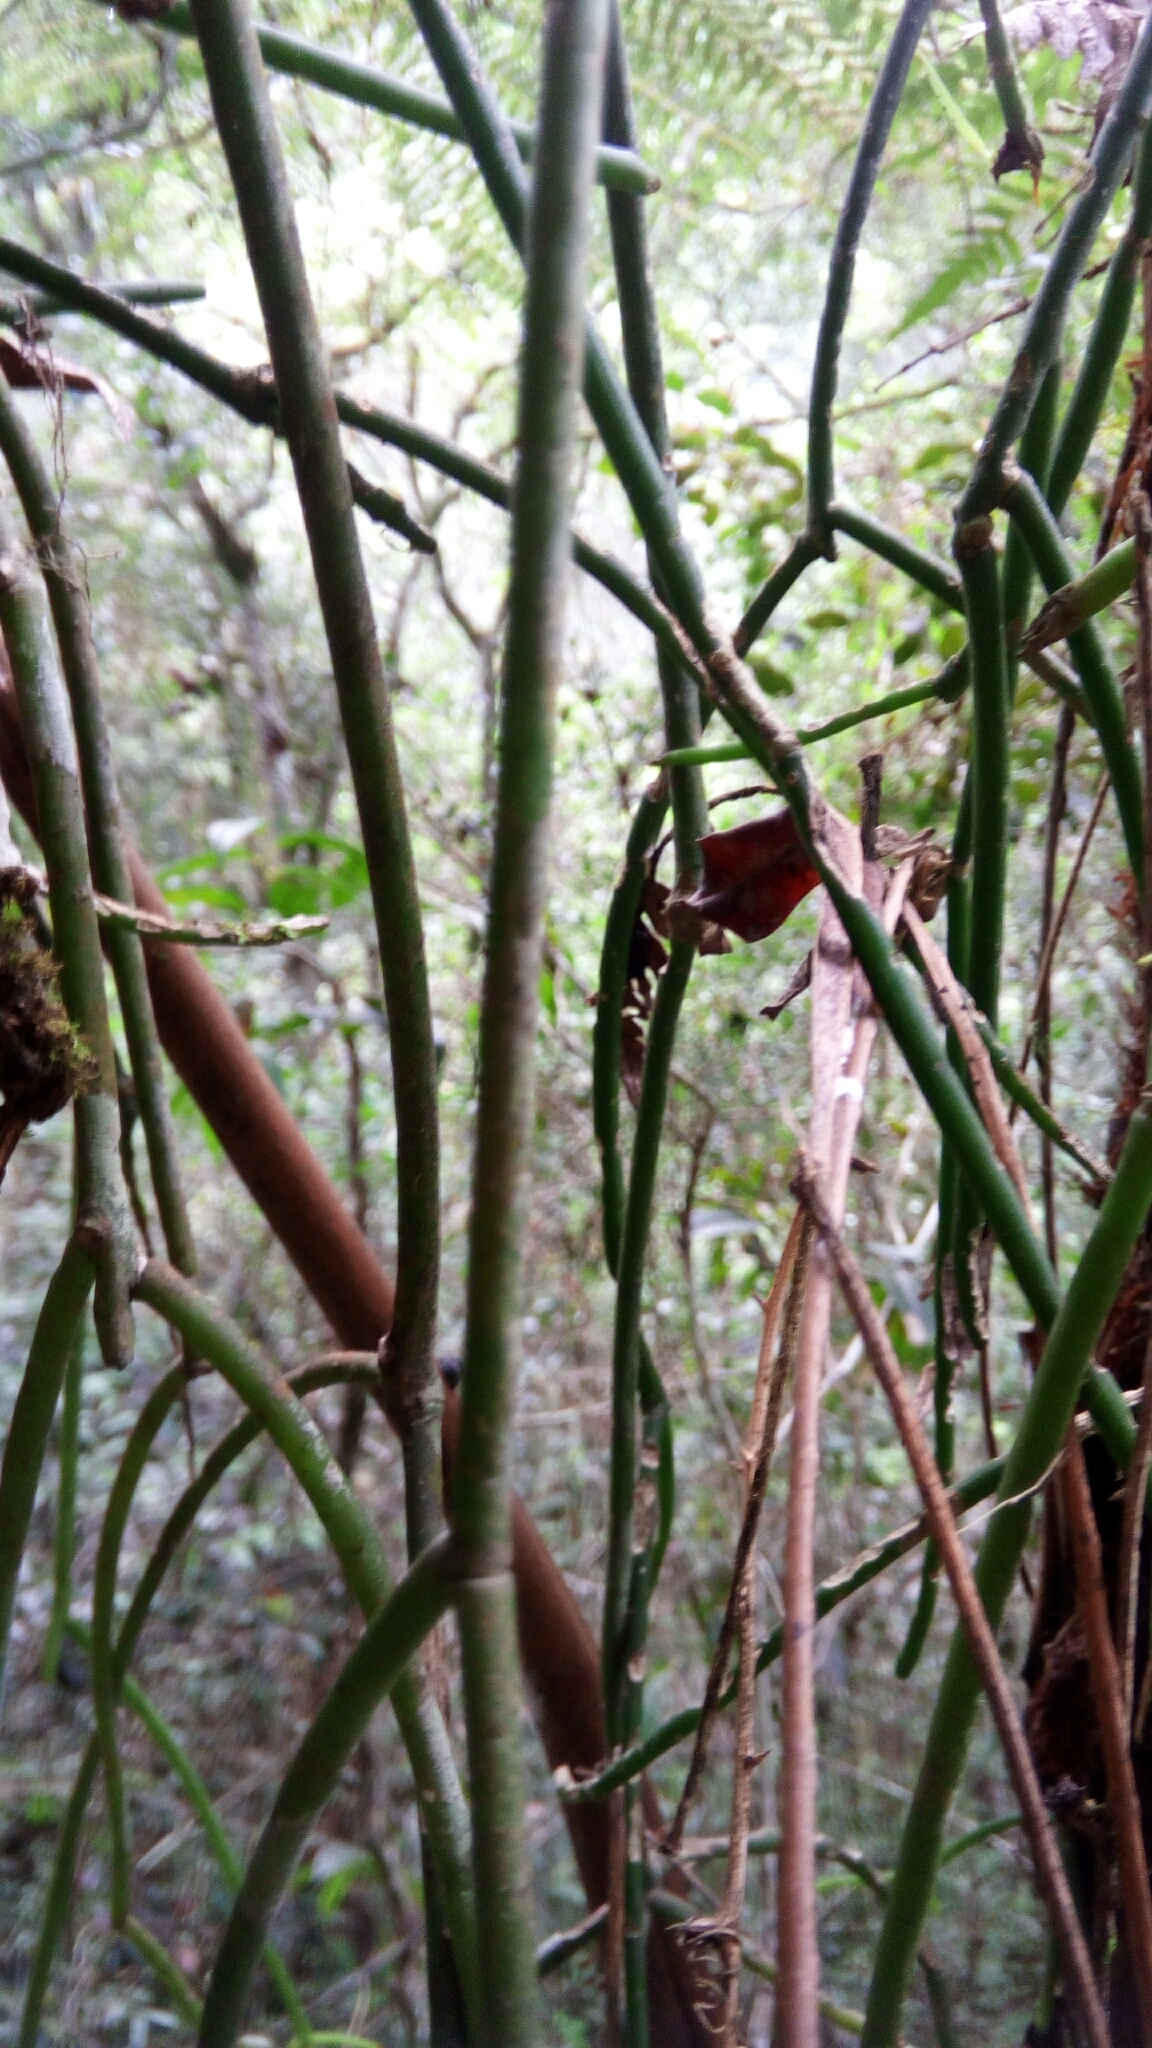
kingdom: Plantae
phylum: Tracheophyta
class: Magnoliopsida
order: Caryophyllales
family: Cactaceae
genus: Rhipsalis
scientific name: Rhipsalis baccifera
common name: Mistletoe cactus
